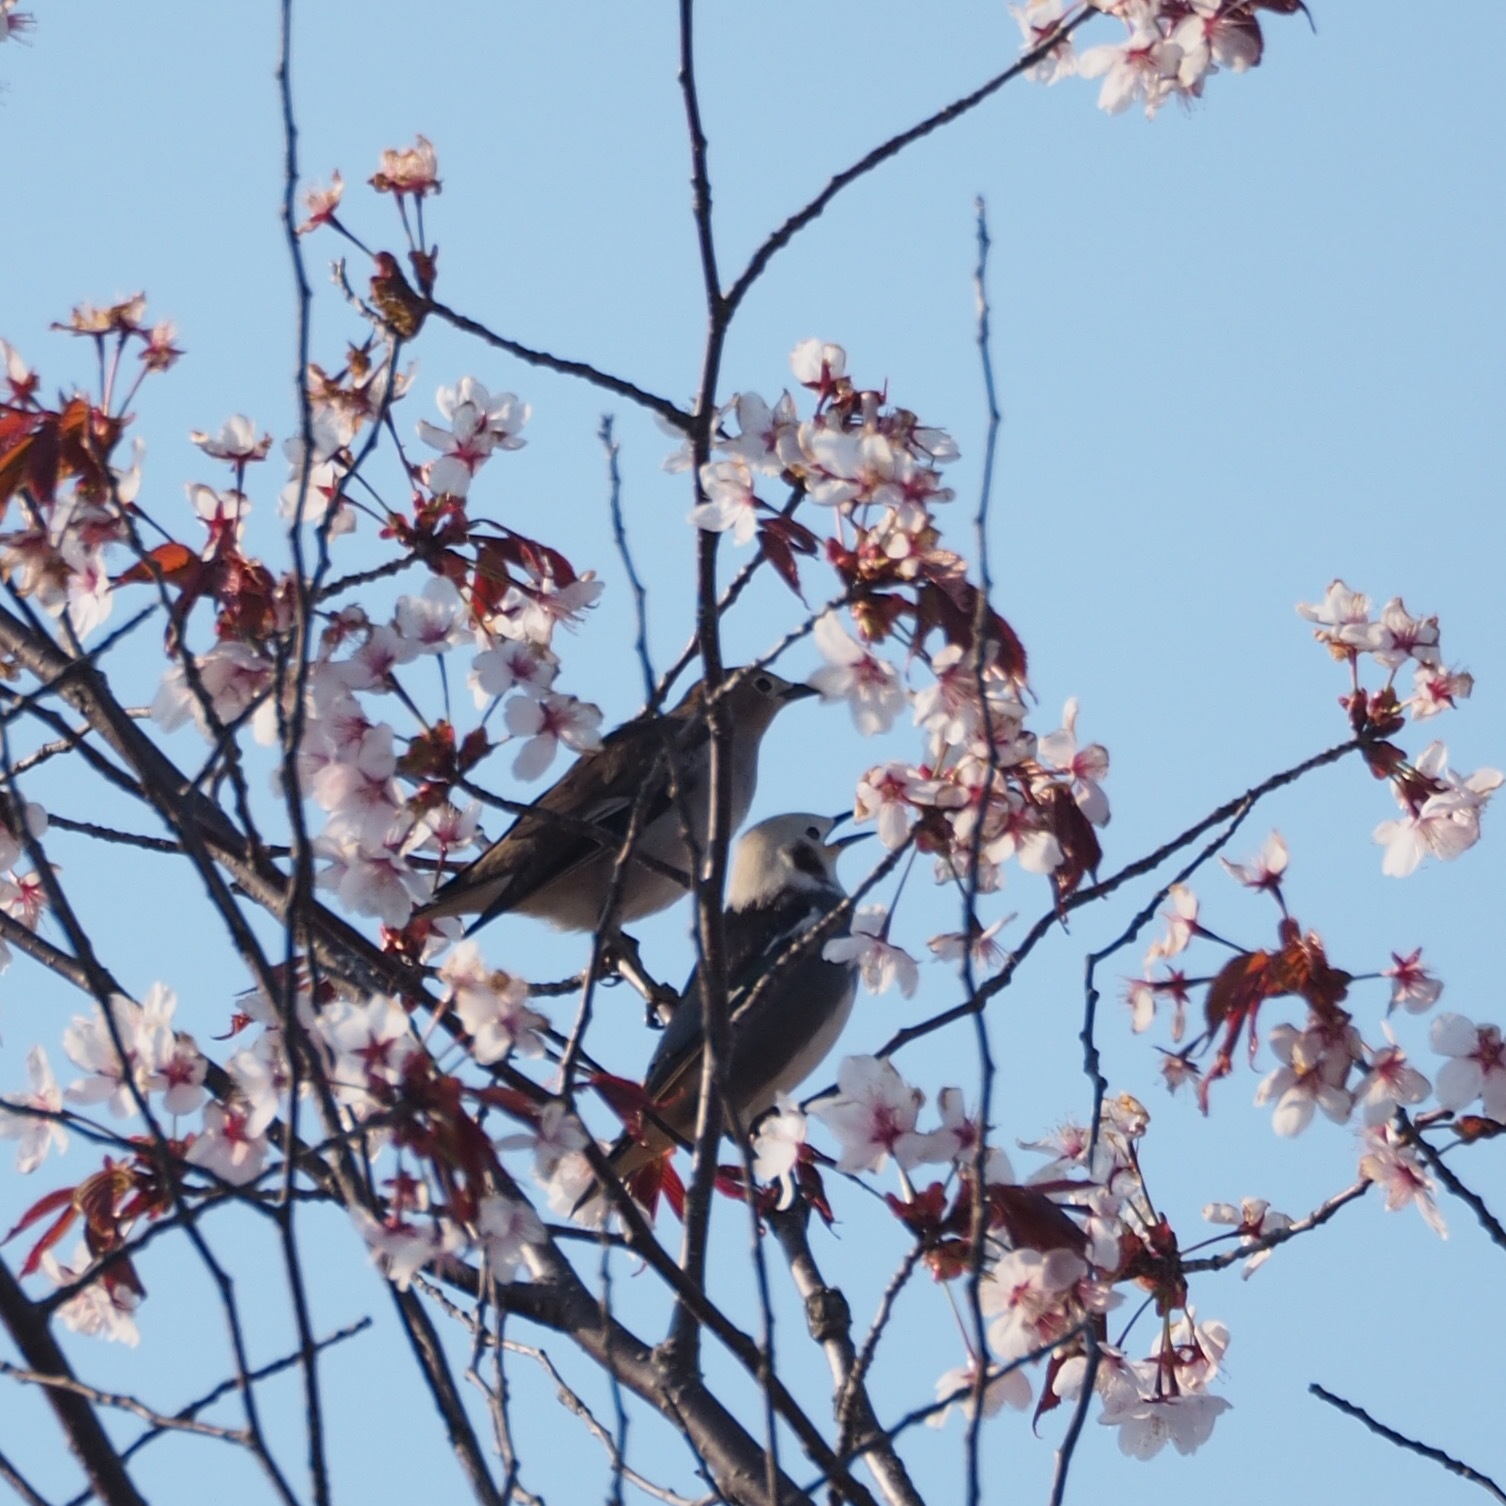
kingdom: Animalia
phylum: Chordata
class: Aves
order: Passeriformes
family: Sturnidae
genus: Agropsar
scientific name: Agropsar philippensis
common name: Chestnut-cheeked starling
